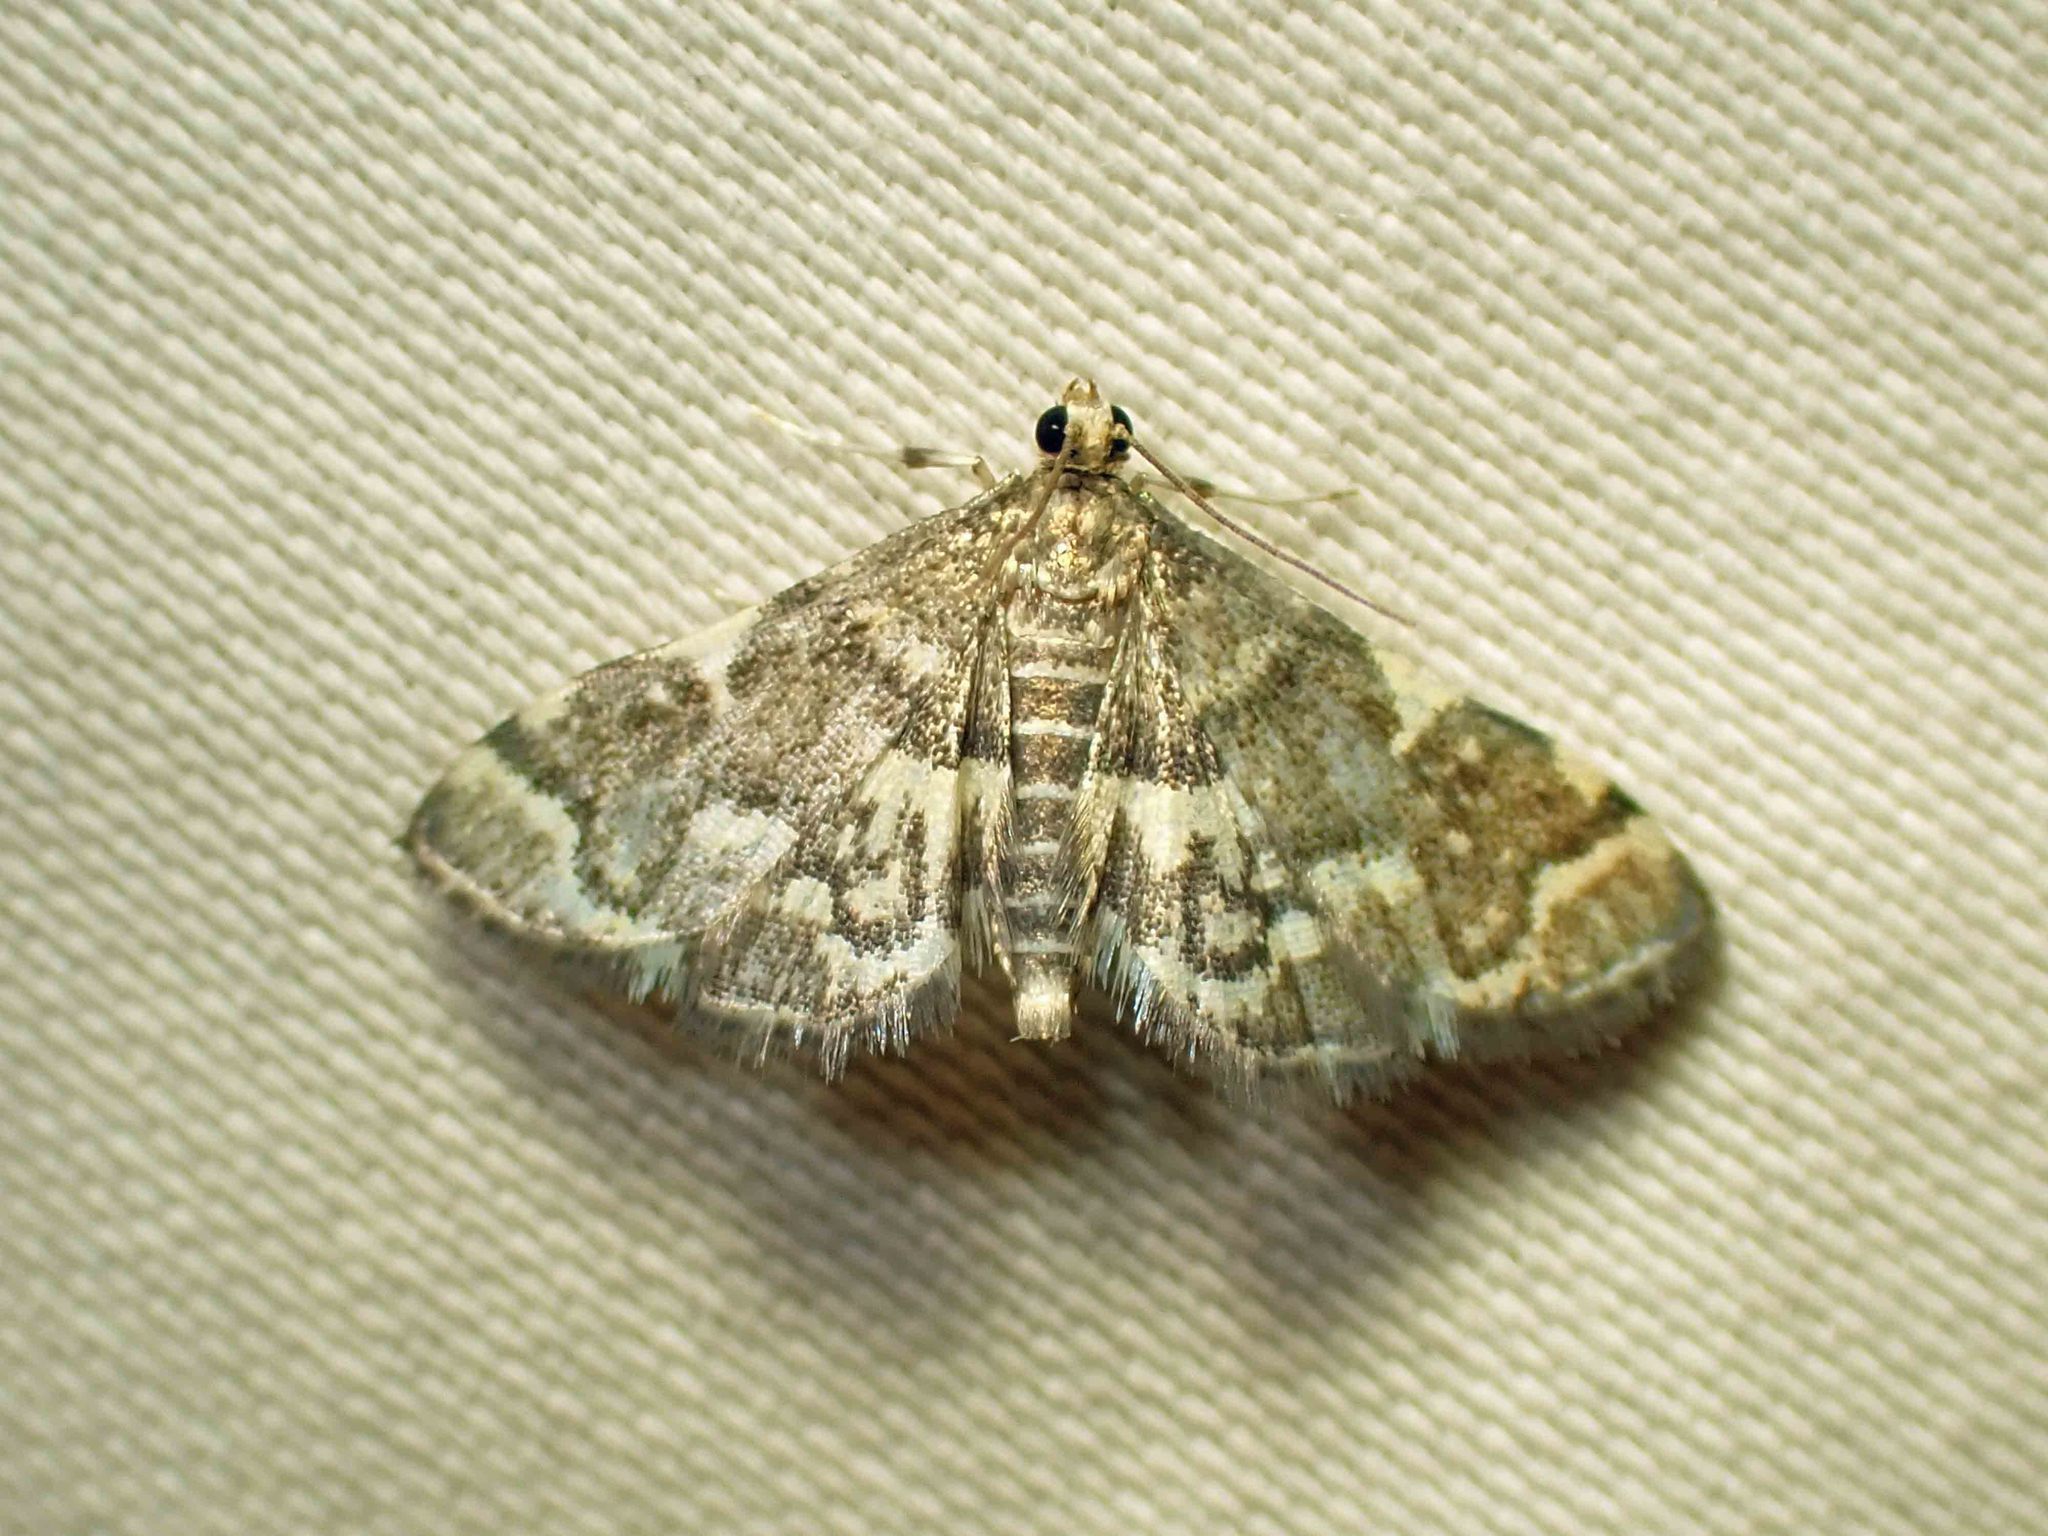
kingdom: Animalia
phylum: Arthropoda
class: Insecta
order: Lepidoptera
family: Crambidae
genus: Anageshna
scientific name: Anageshna primordialis
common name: Yellow-spotted webworm moth
